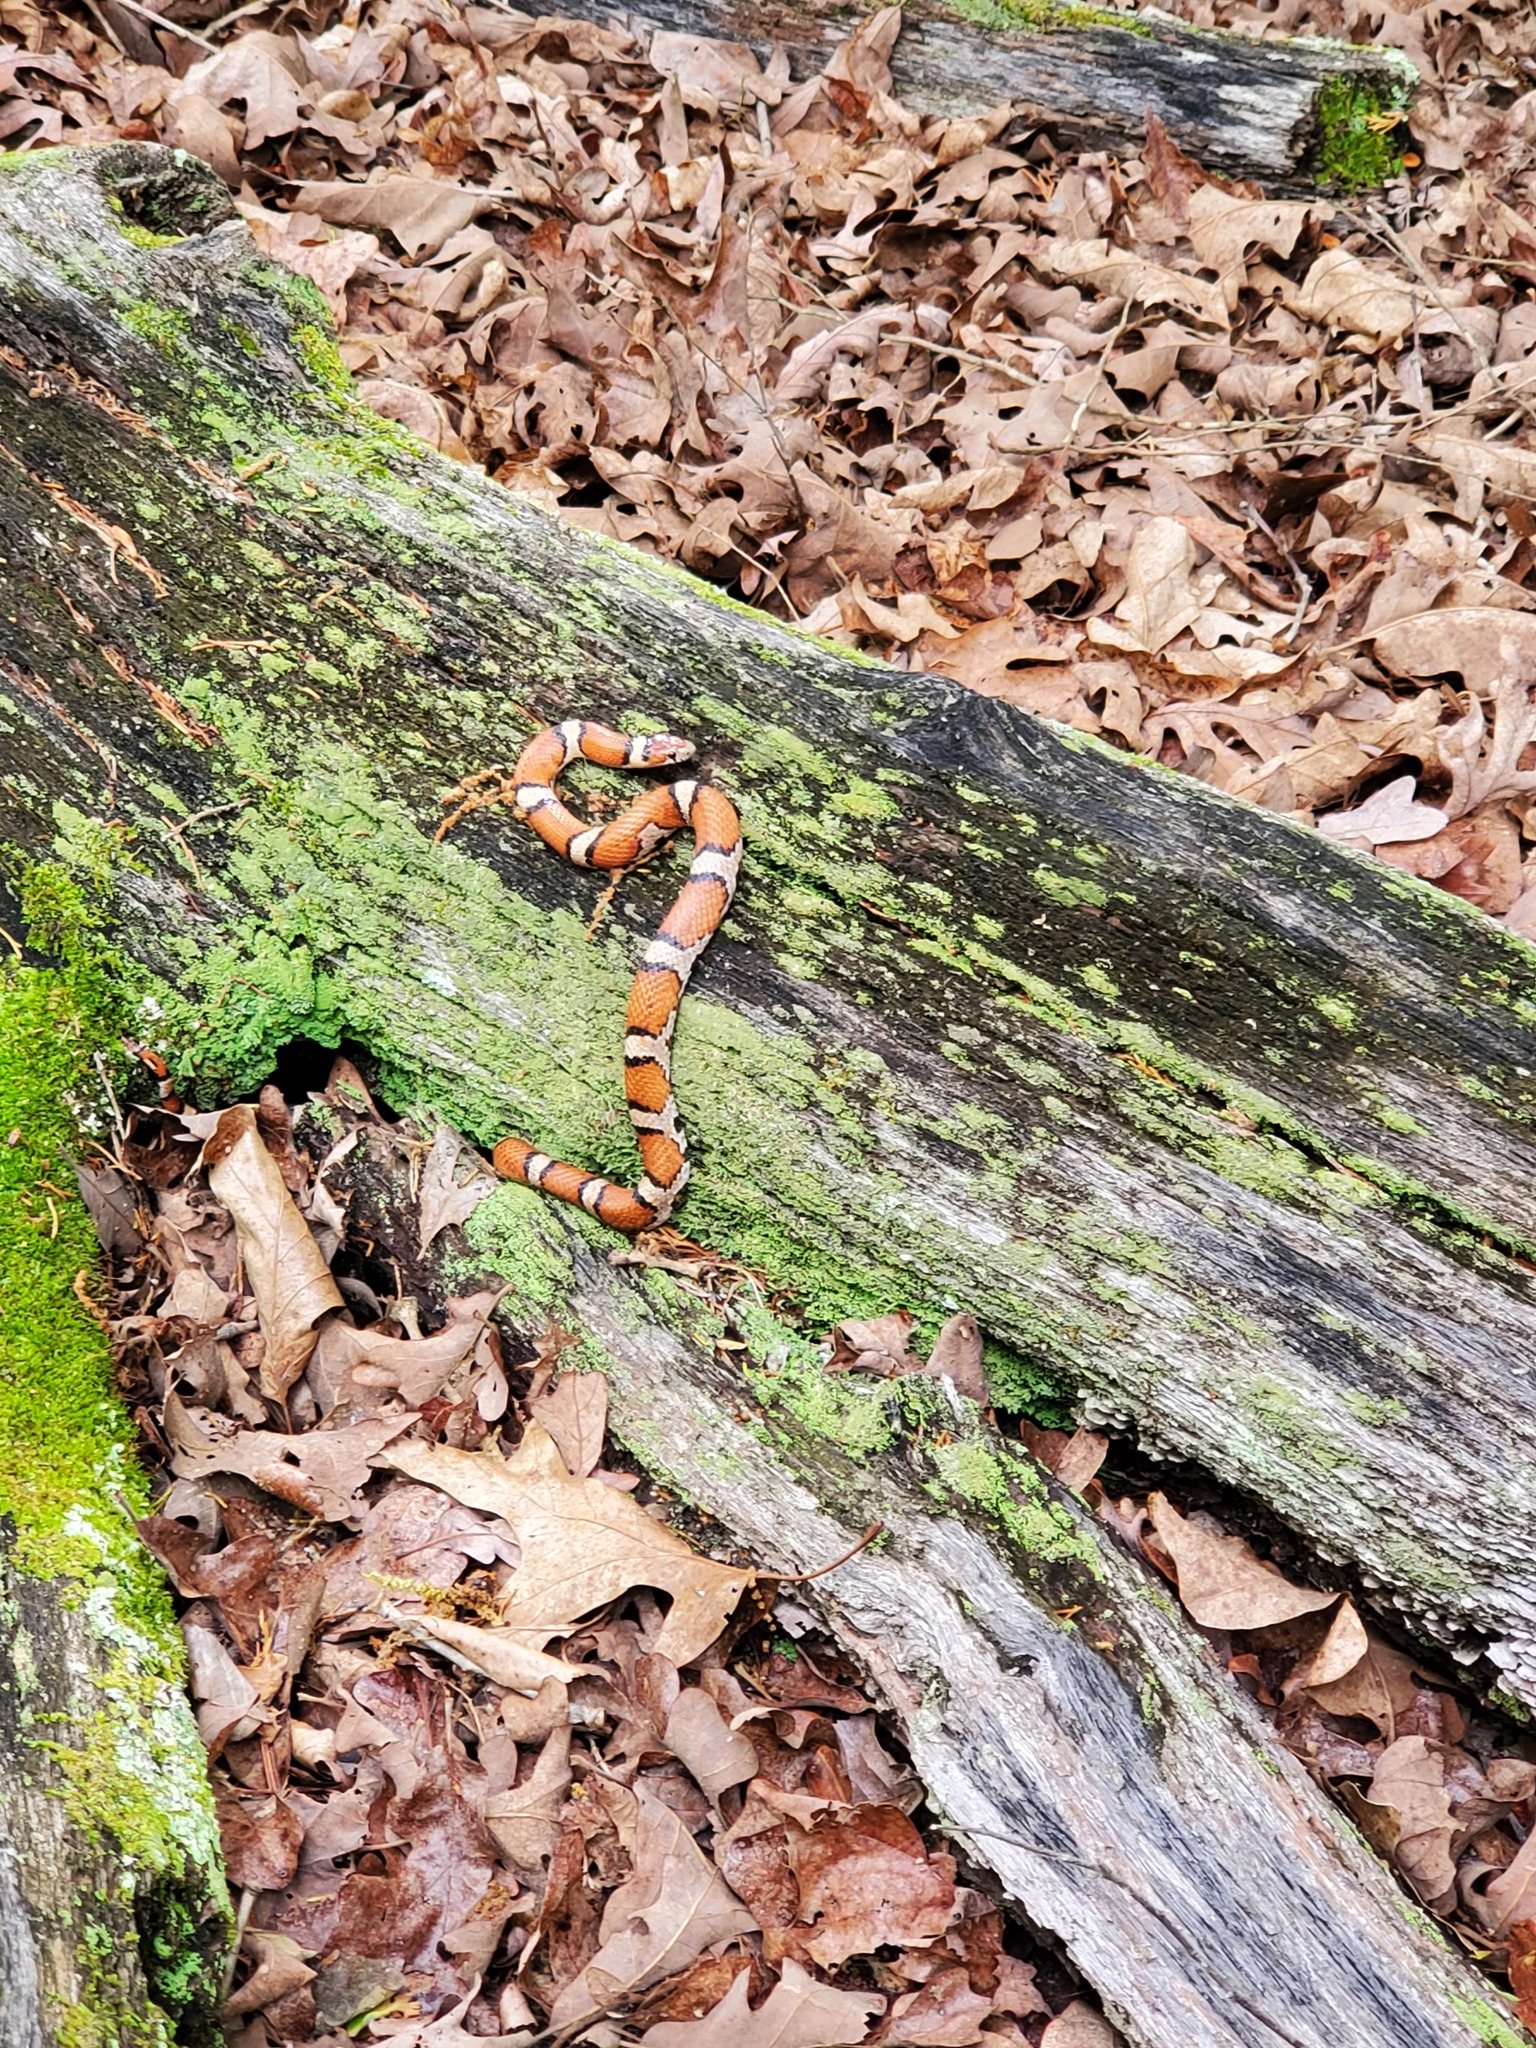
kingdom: Animalia
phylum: Chordata
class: Squamata
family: Colubridae
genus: Lampropeltis
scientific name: Lampropeltis triangulum
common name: Eastern milksnake
